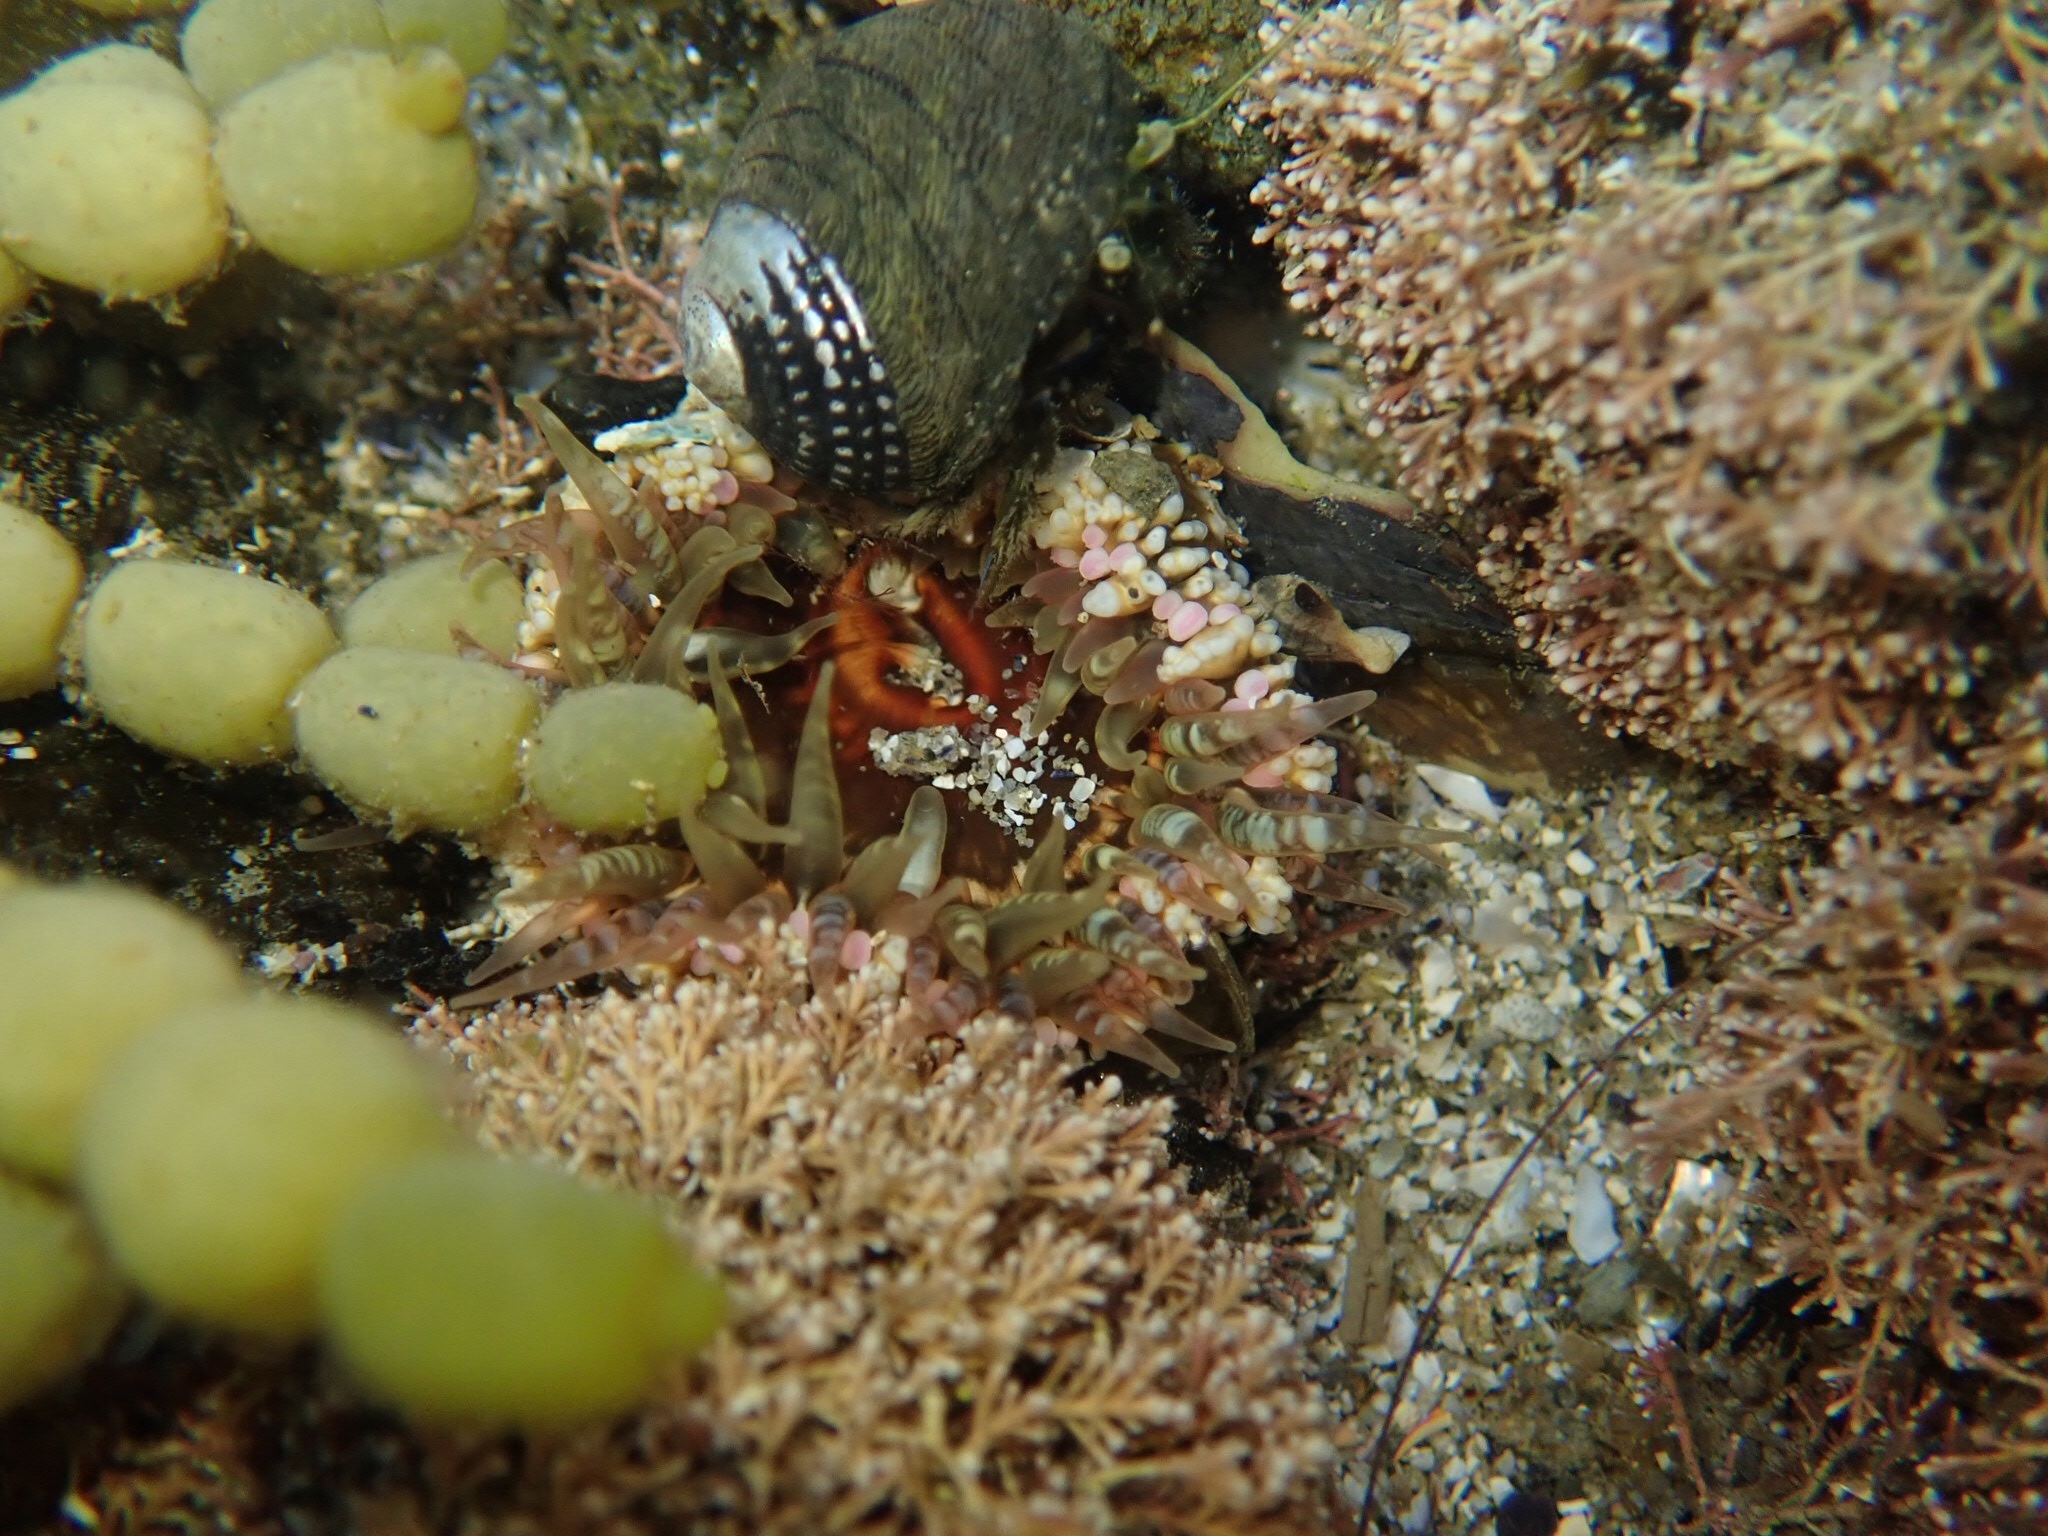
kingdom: Animalia
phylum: Cnidaria
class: Anthozoa
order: Actiniaria
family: Actiniidae
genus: Oulactis
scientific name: Oulactis muscosa
